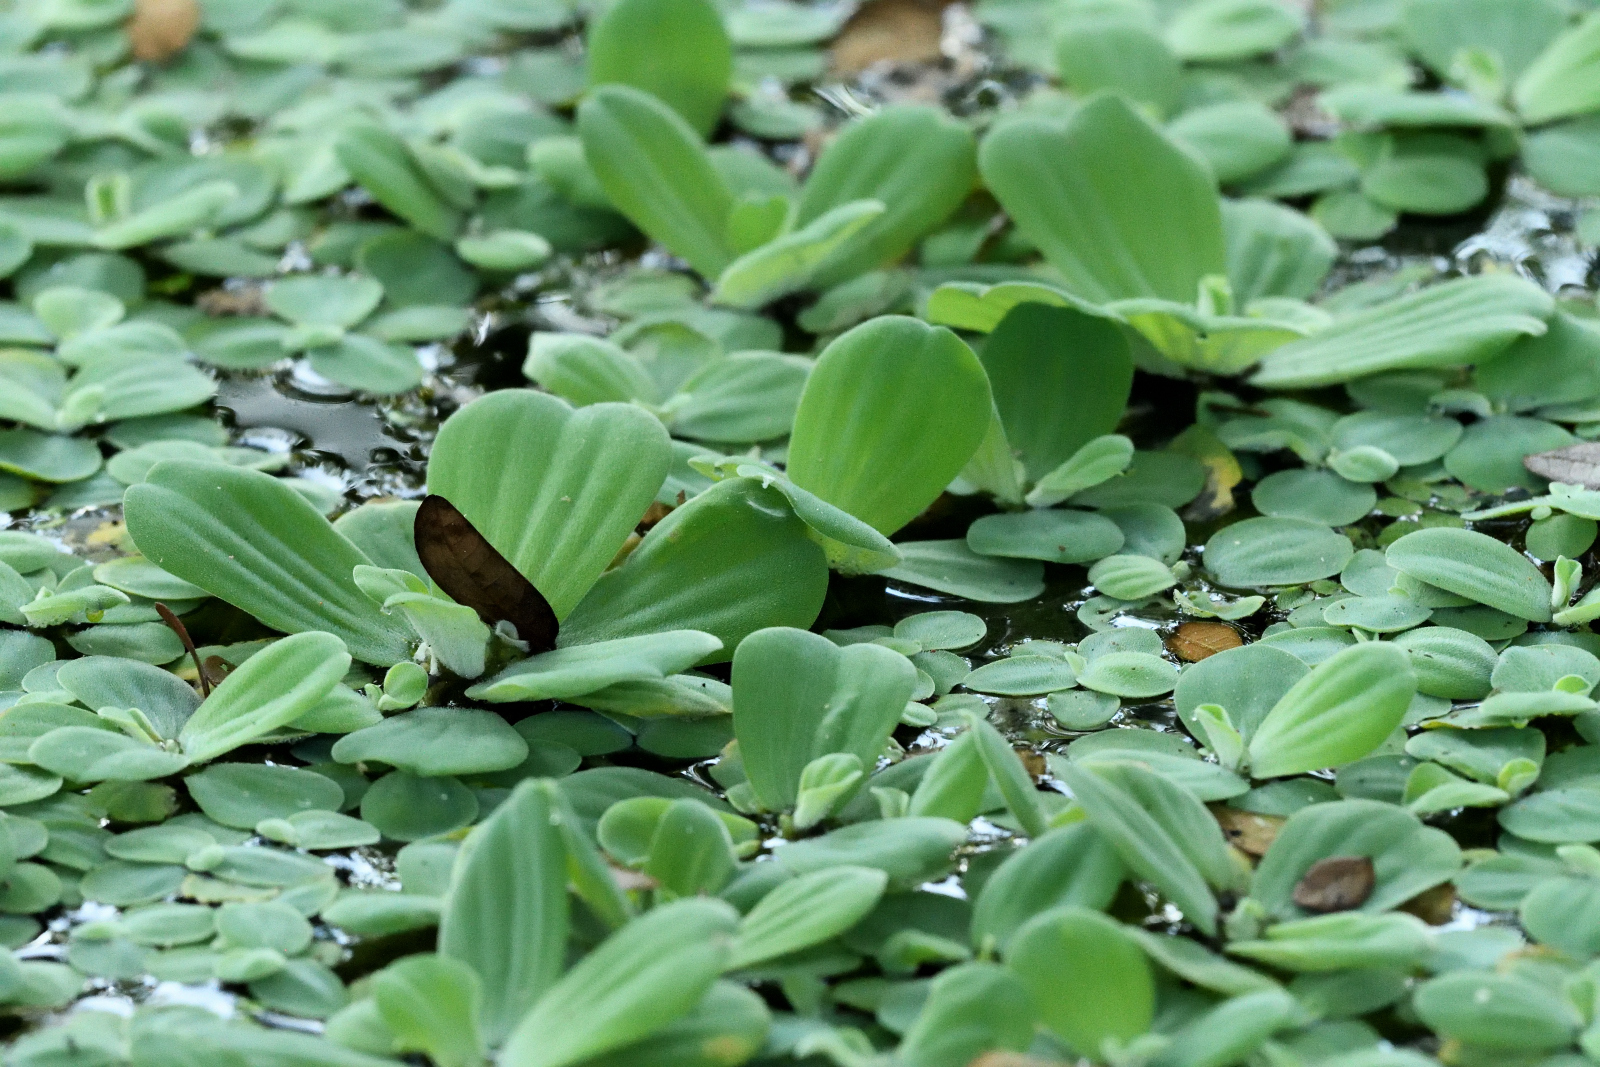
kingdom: Plantae
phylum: Tracheophyta
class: Liliopsida
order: Alismatales
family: Araceae
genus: Pistia
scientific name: Pistia stratiotes
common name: Water lettuce
